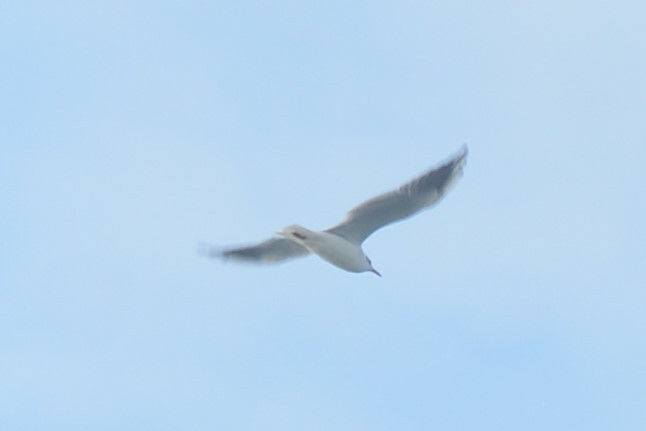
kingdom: Animalia
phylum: Chordata
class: Aves
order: Charadriiformes
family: Laridae
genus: Chroicocephalus
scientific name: Chroicocephalus ridibundus
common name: Black-headed gull
